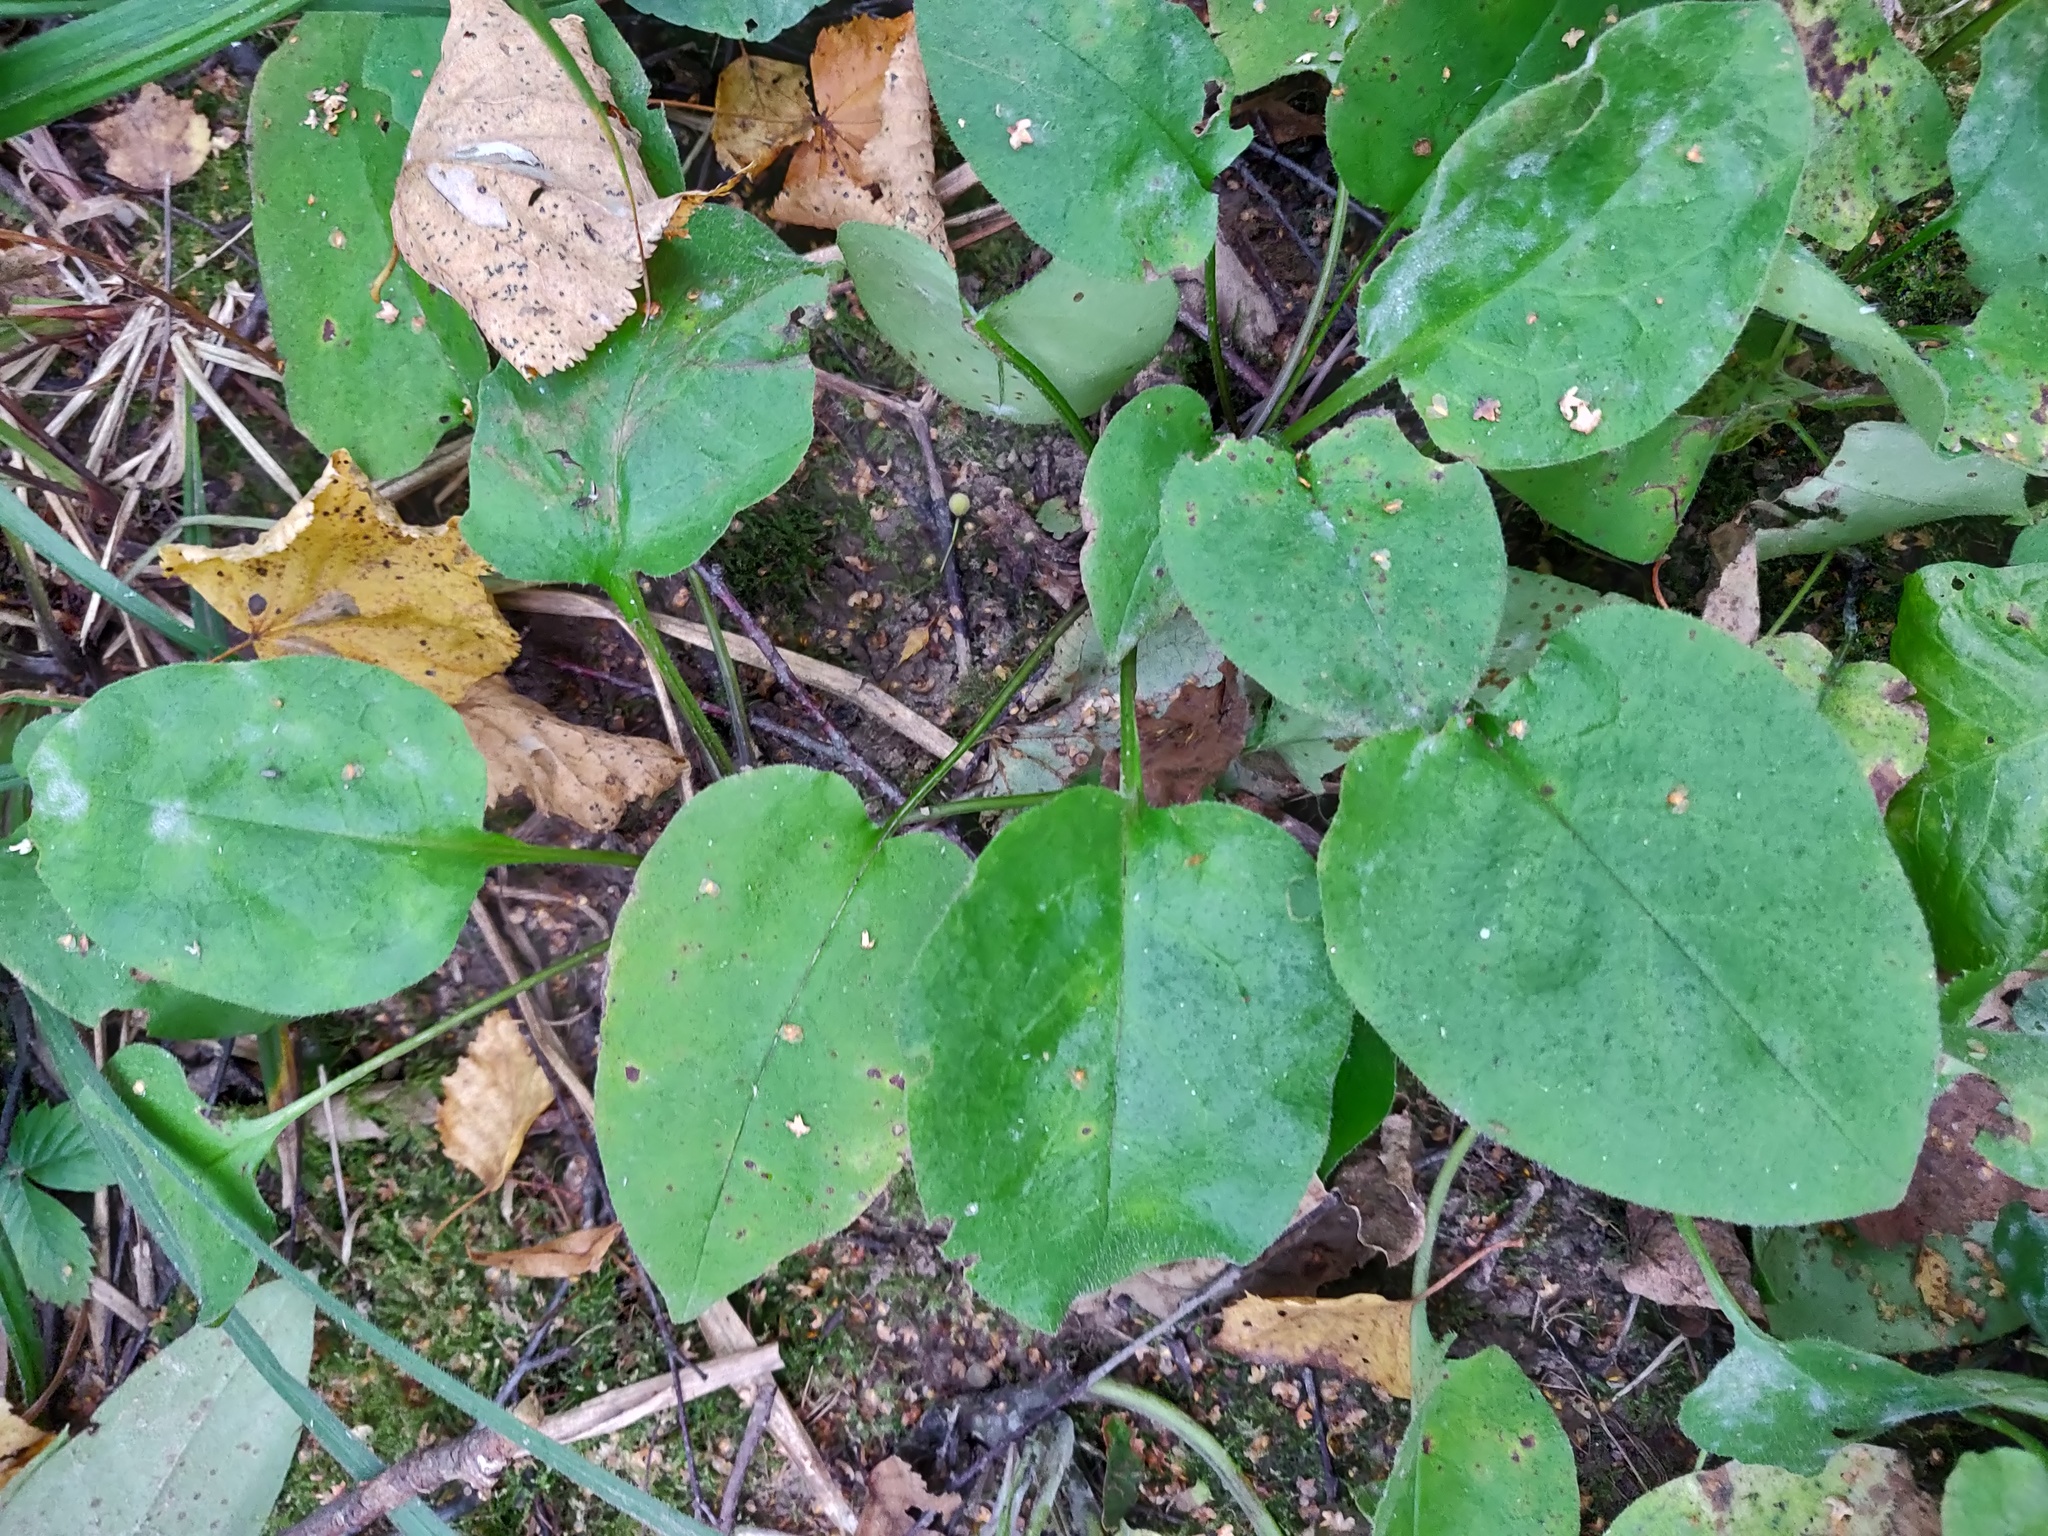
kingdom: Plantae
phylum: Tracheophyta
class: Magnoliopsida
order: Boraginales
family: Boraginaceae
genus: Pulmonaria
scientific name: Pulmonaria obscura
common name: Suffolk lungwort
